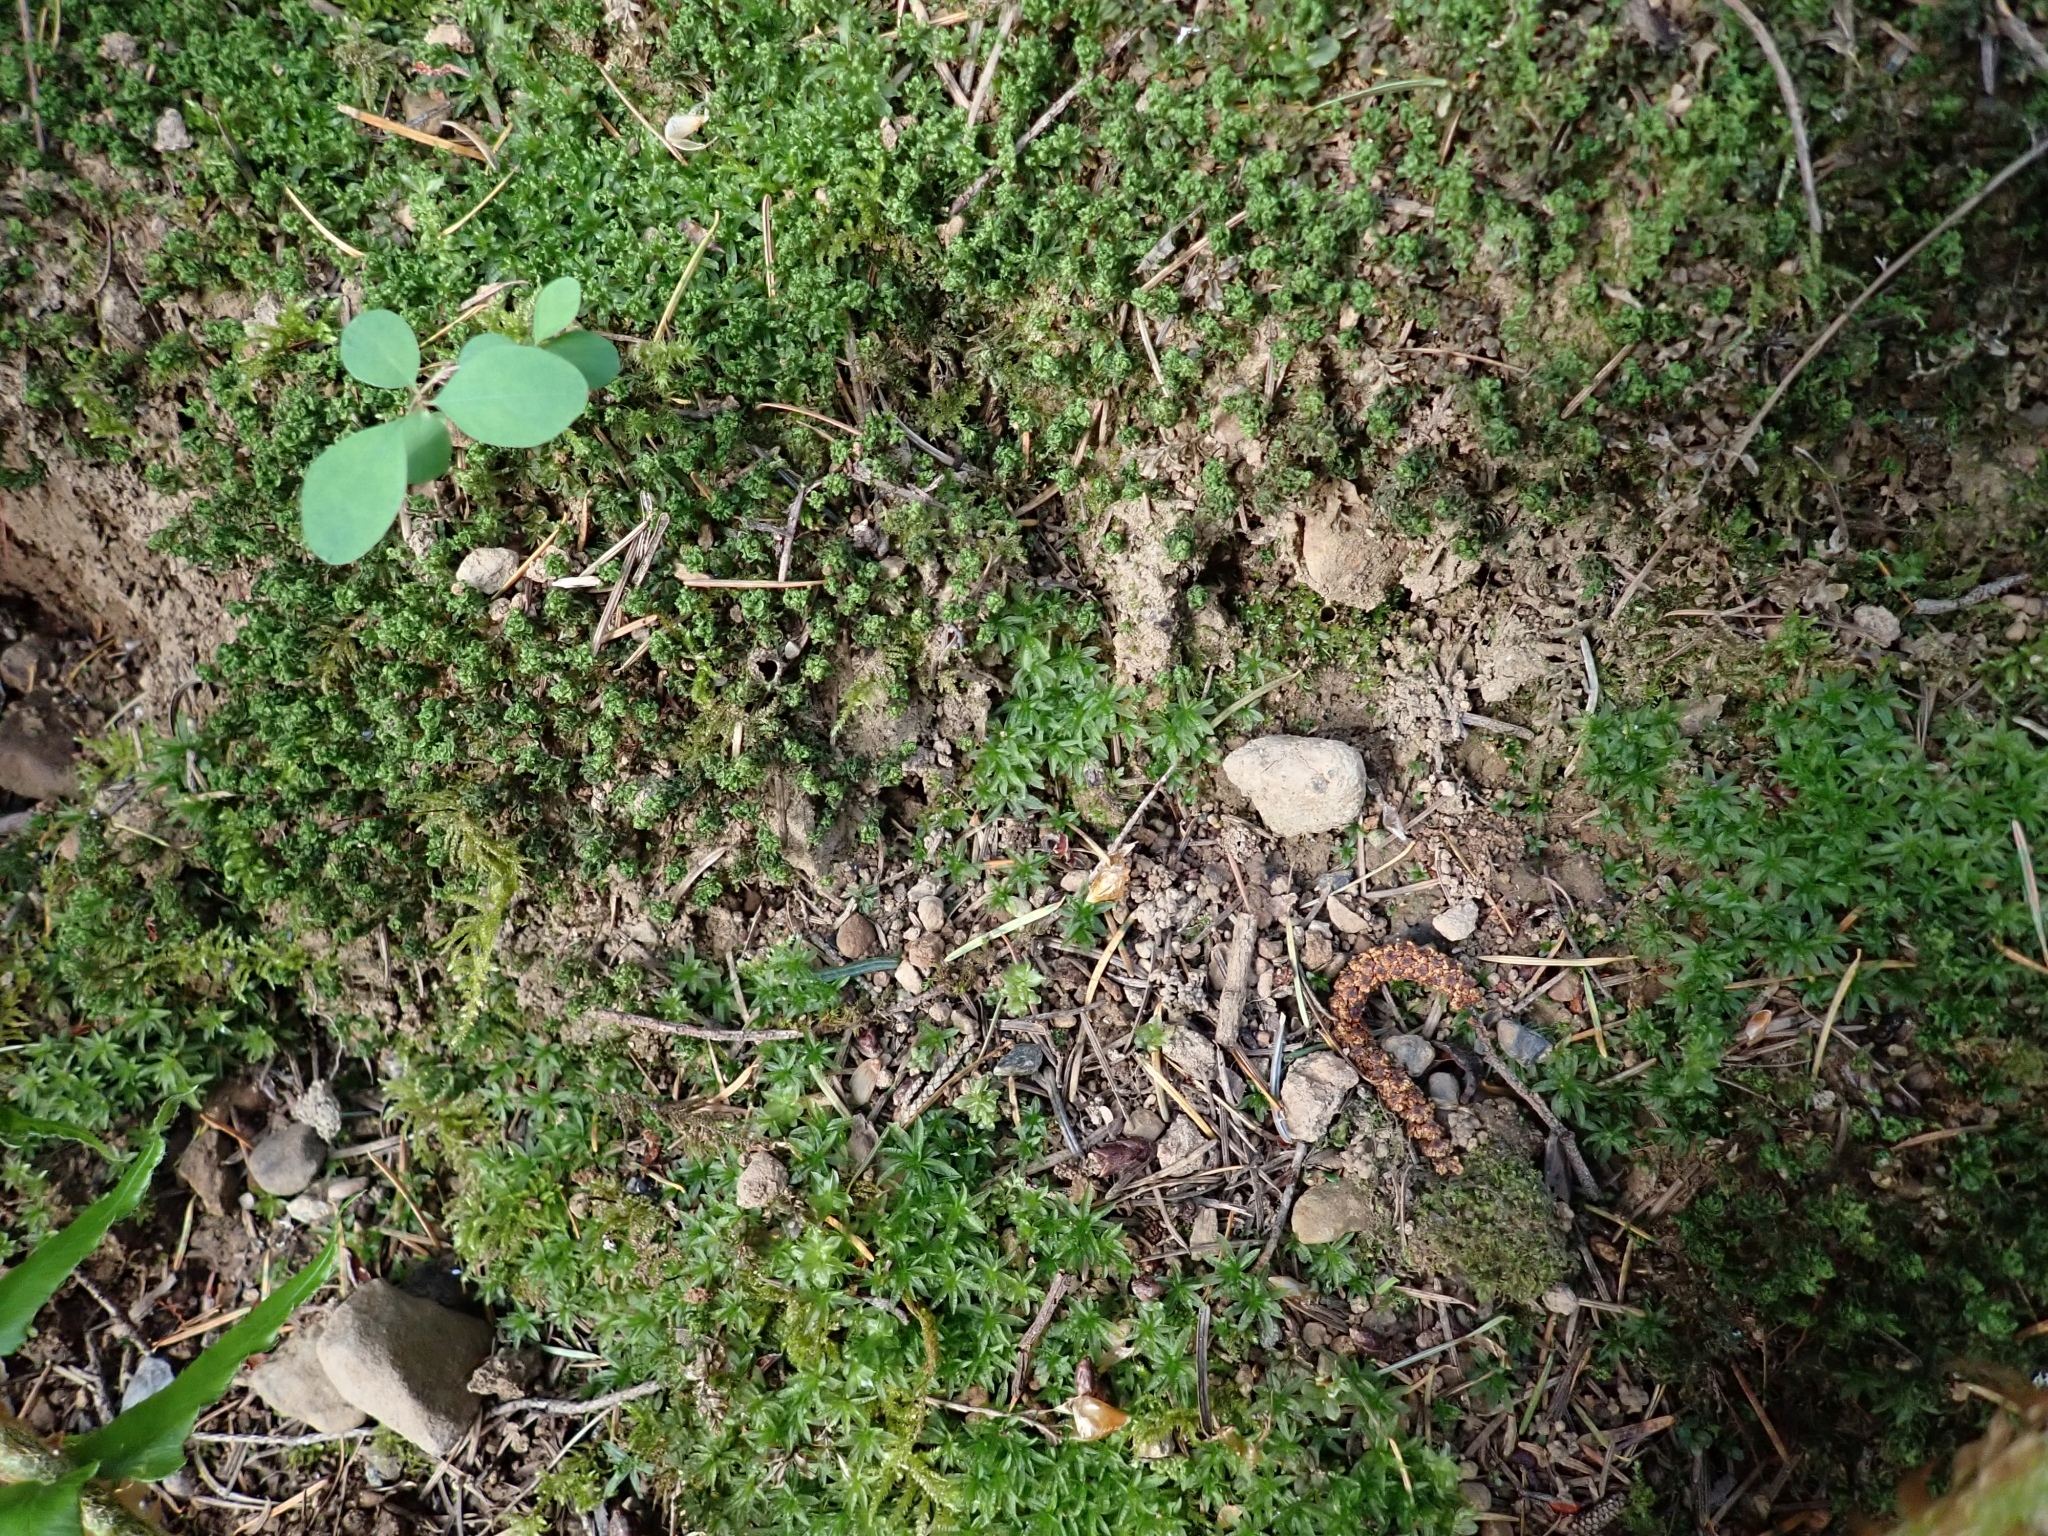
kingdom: Plantae
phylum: Bryophyta
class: Polytrichopsida
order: Polytrichales
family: Polytrichaceae
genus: Atrichum
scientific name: Atrichum undulatum
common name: Common smoothcap
